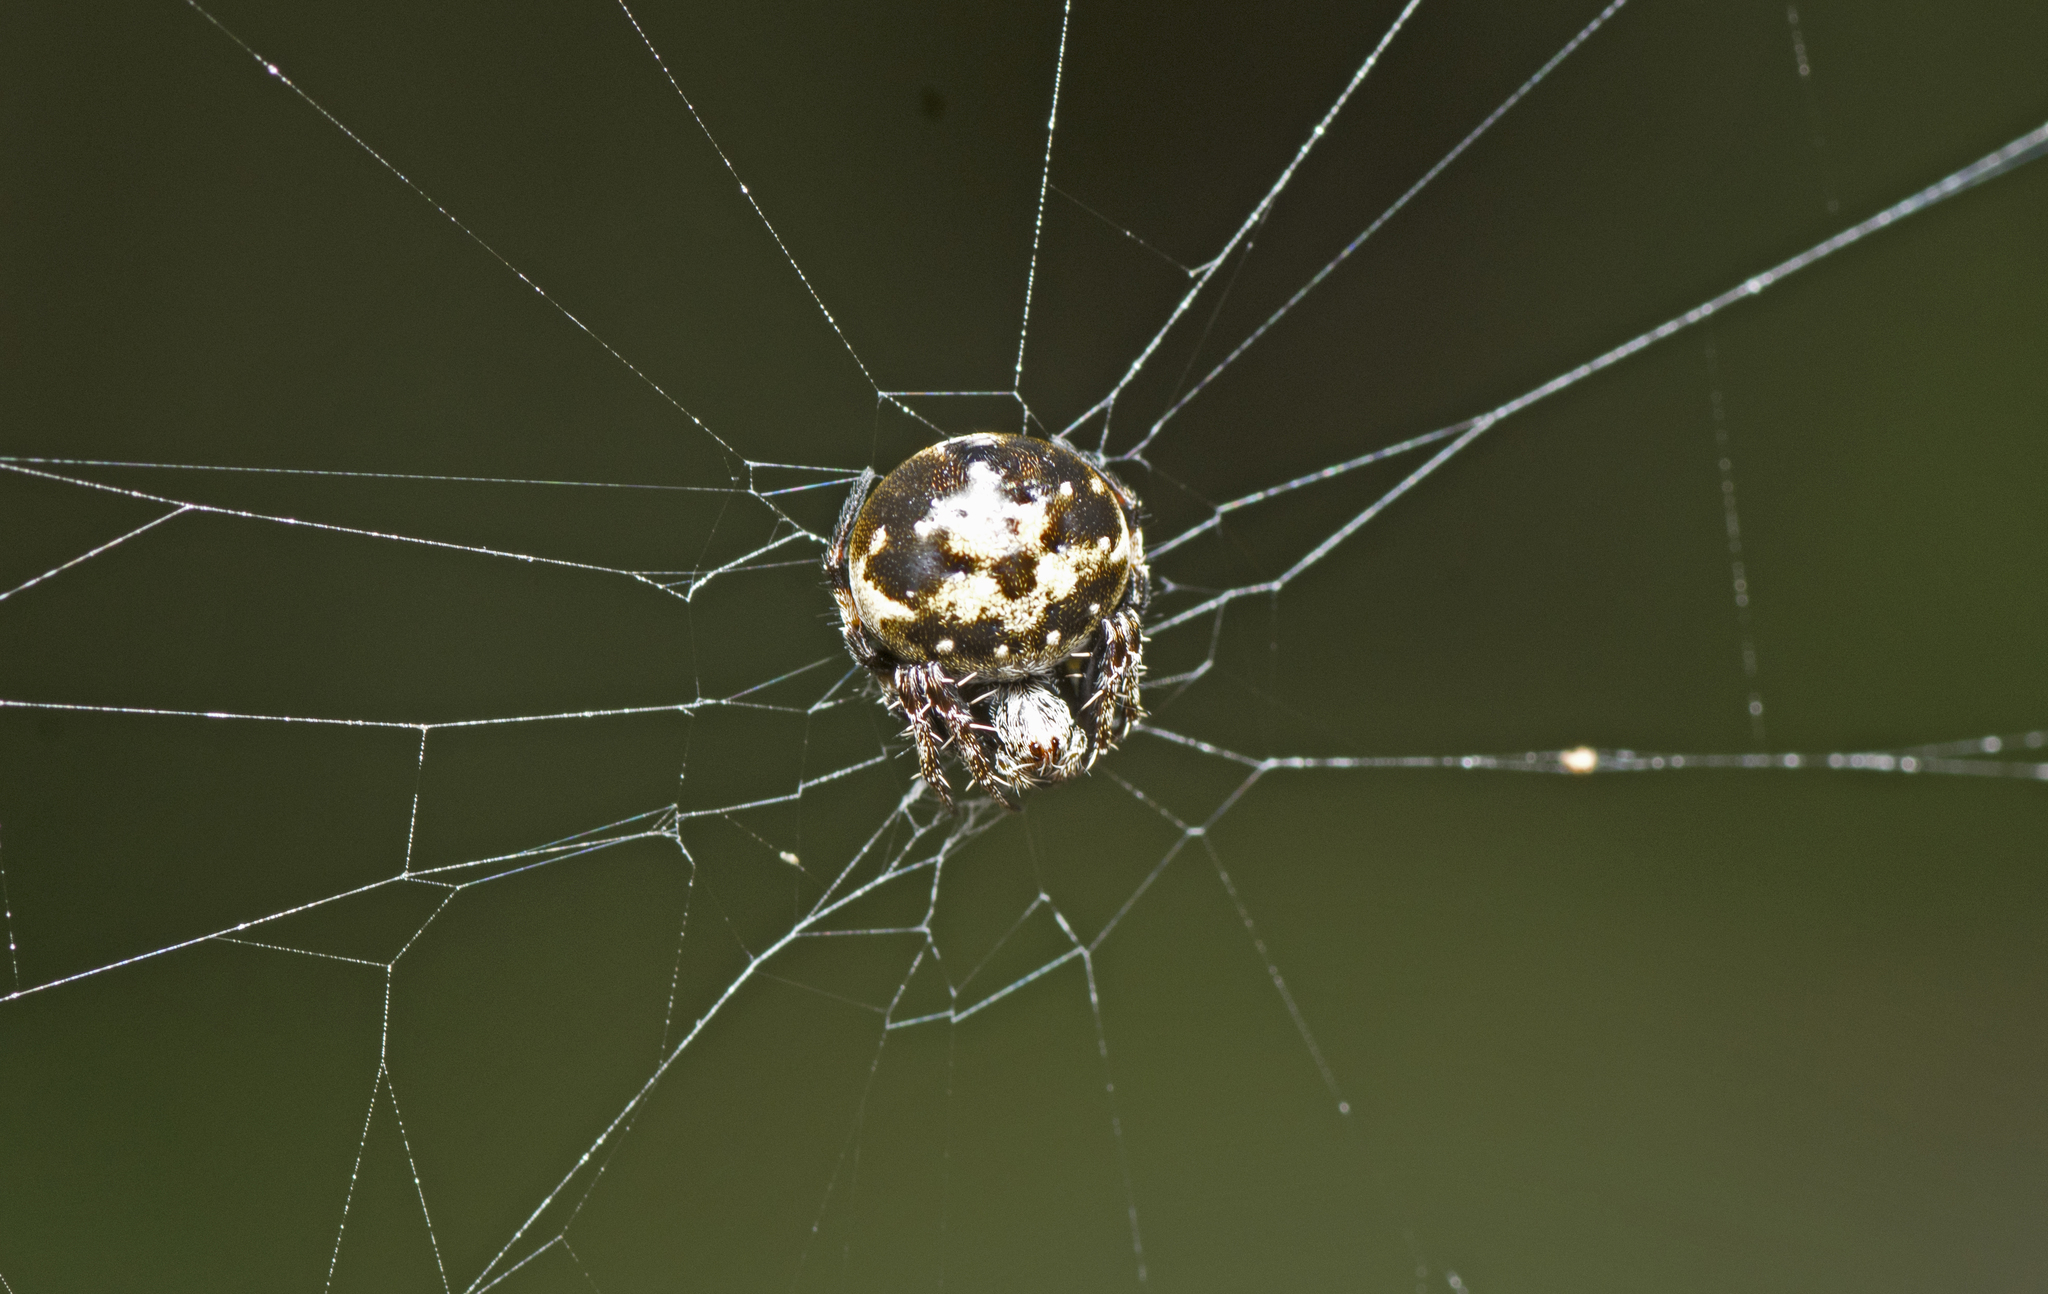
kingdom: Animalia
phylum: Arthropoda
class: Arachnida
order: Araneae
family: Araneidae
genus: Araneus
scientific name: Araneus rotundulus
